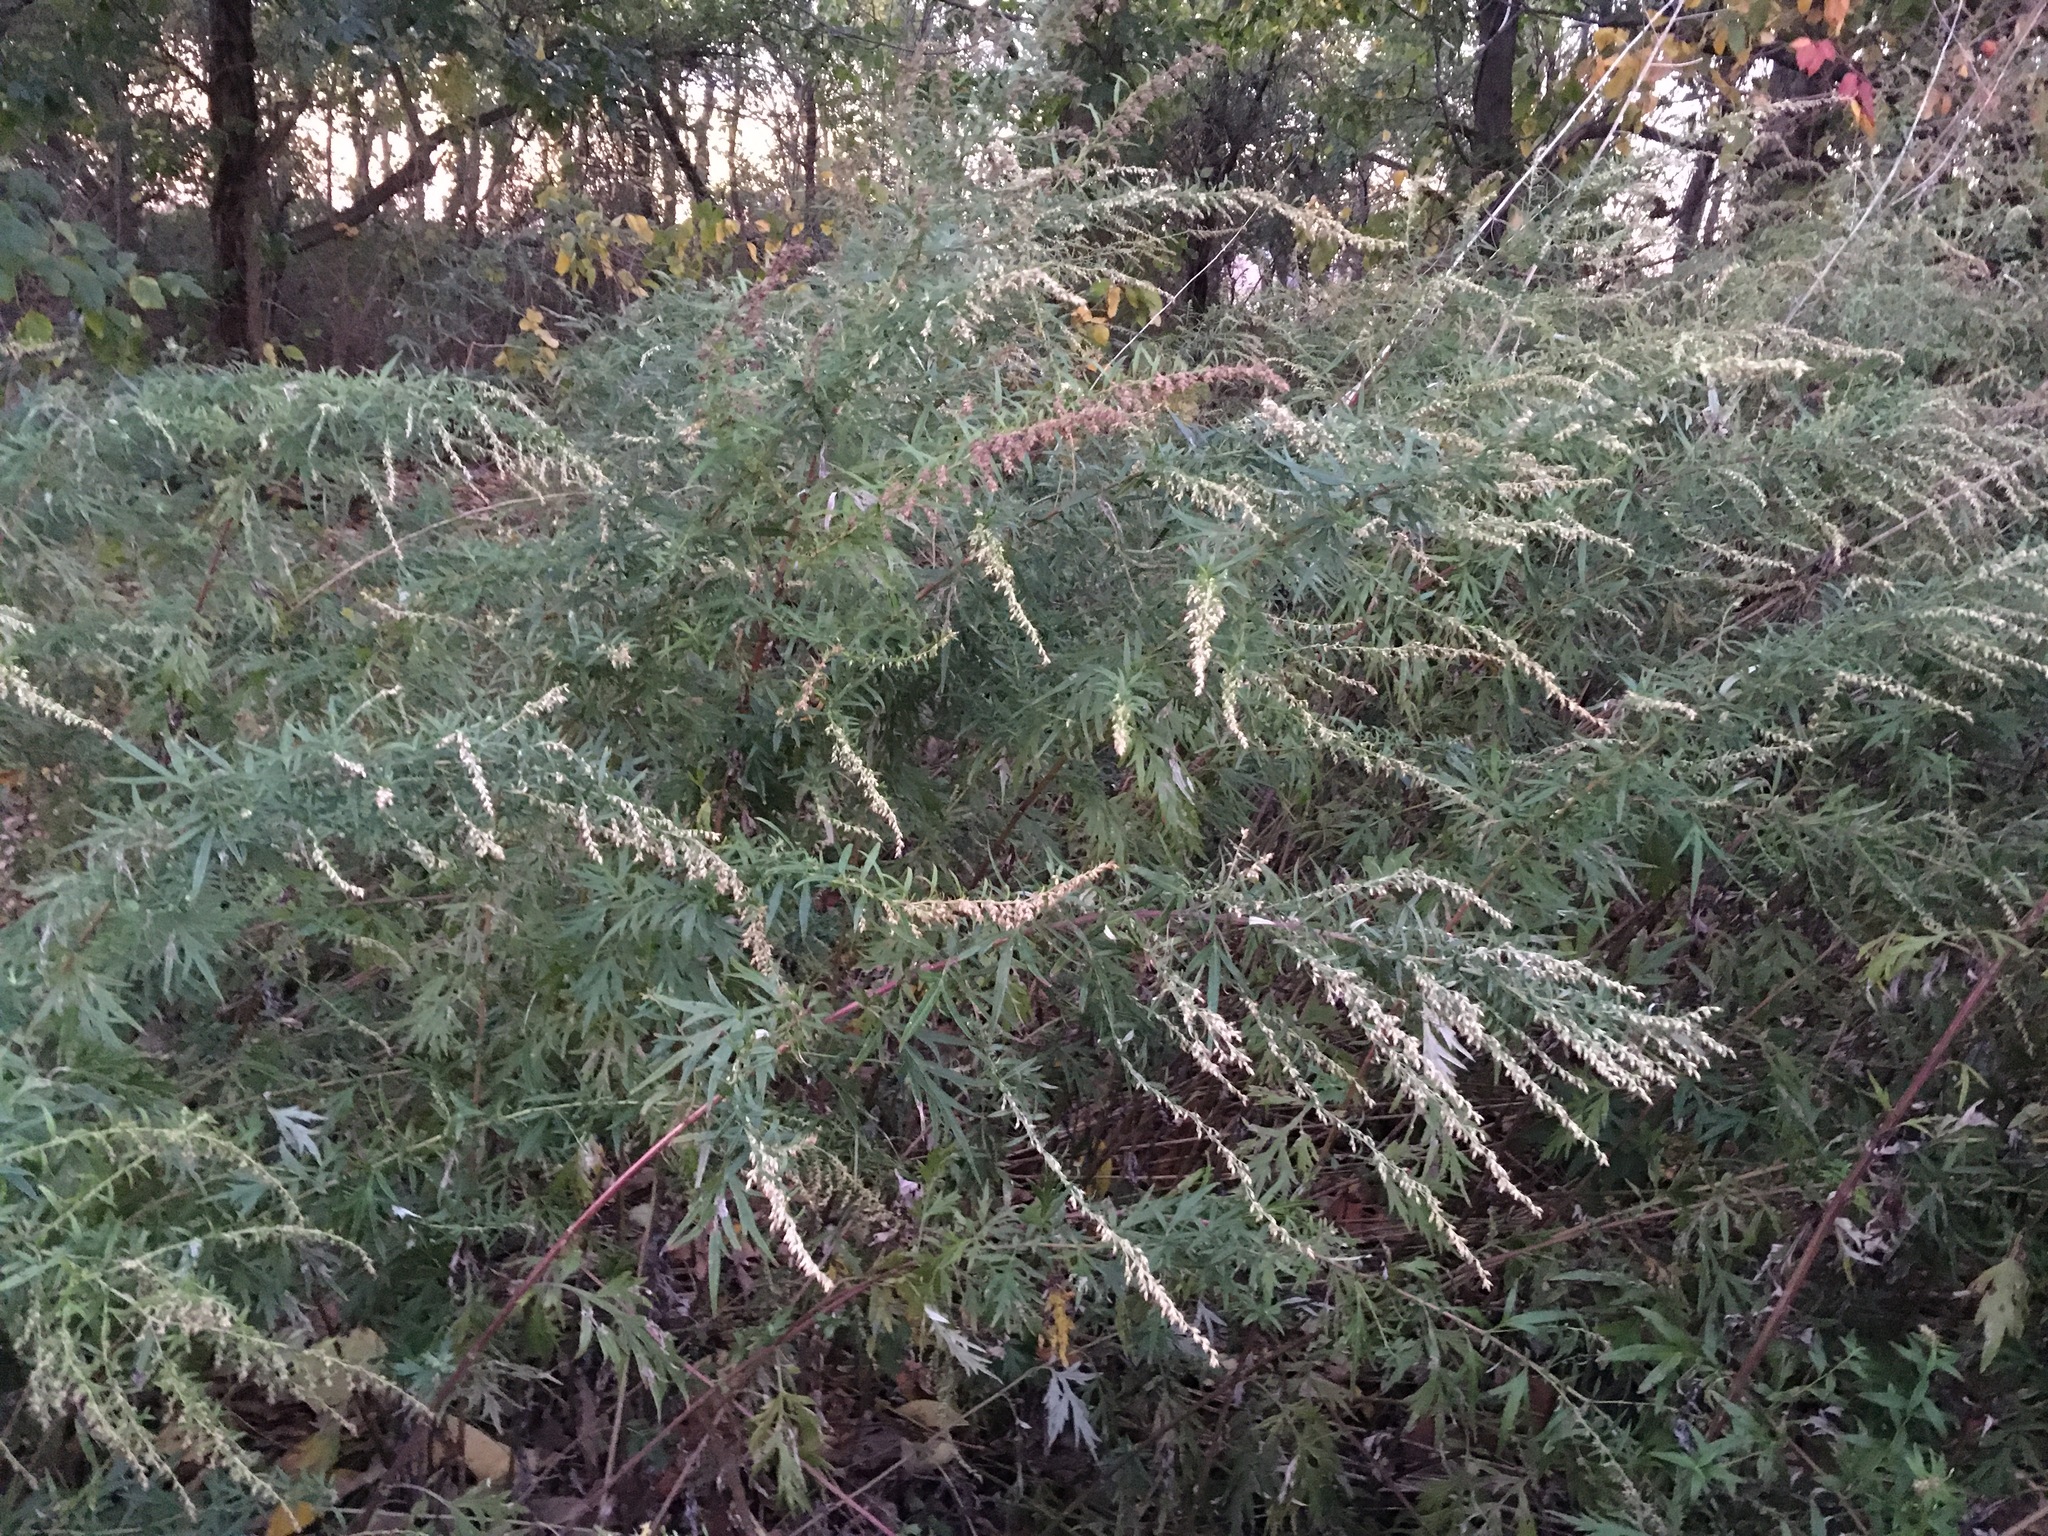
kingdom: Plantae
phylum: Tracheophyta
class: Magnoliopsida
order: Asterales
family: Asteraceae
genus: Artemisia
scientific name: Artemisia vulgaris
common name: Mugwort
